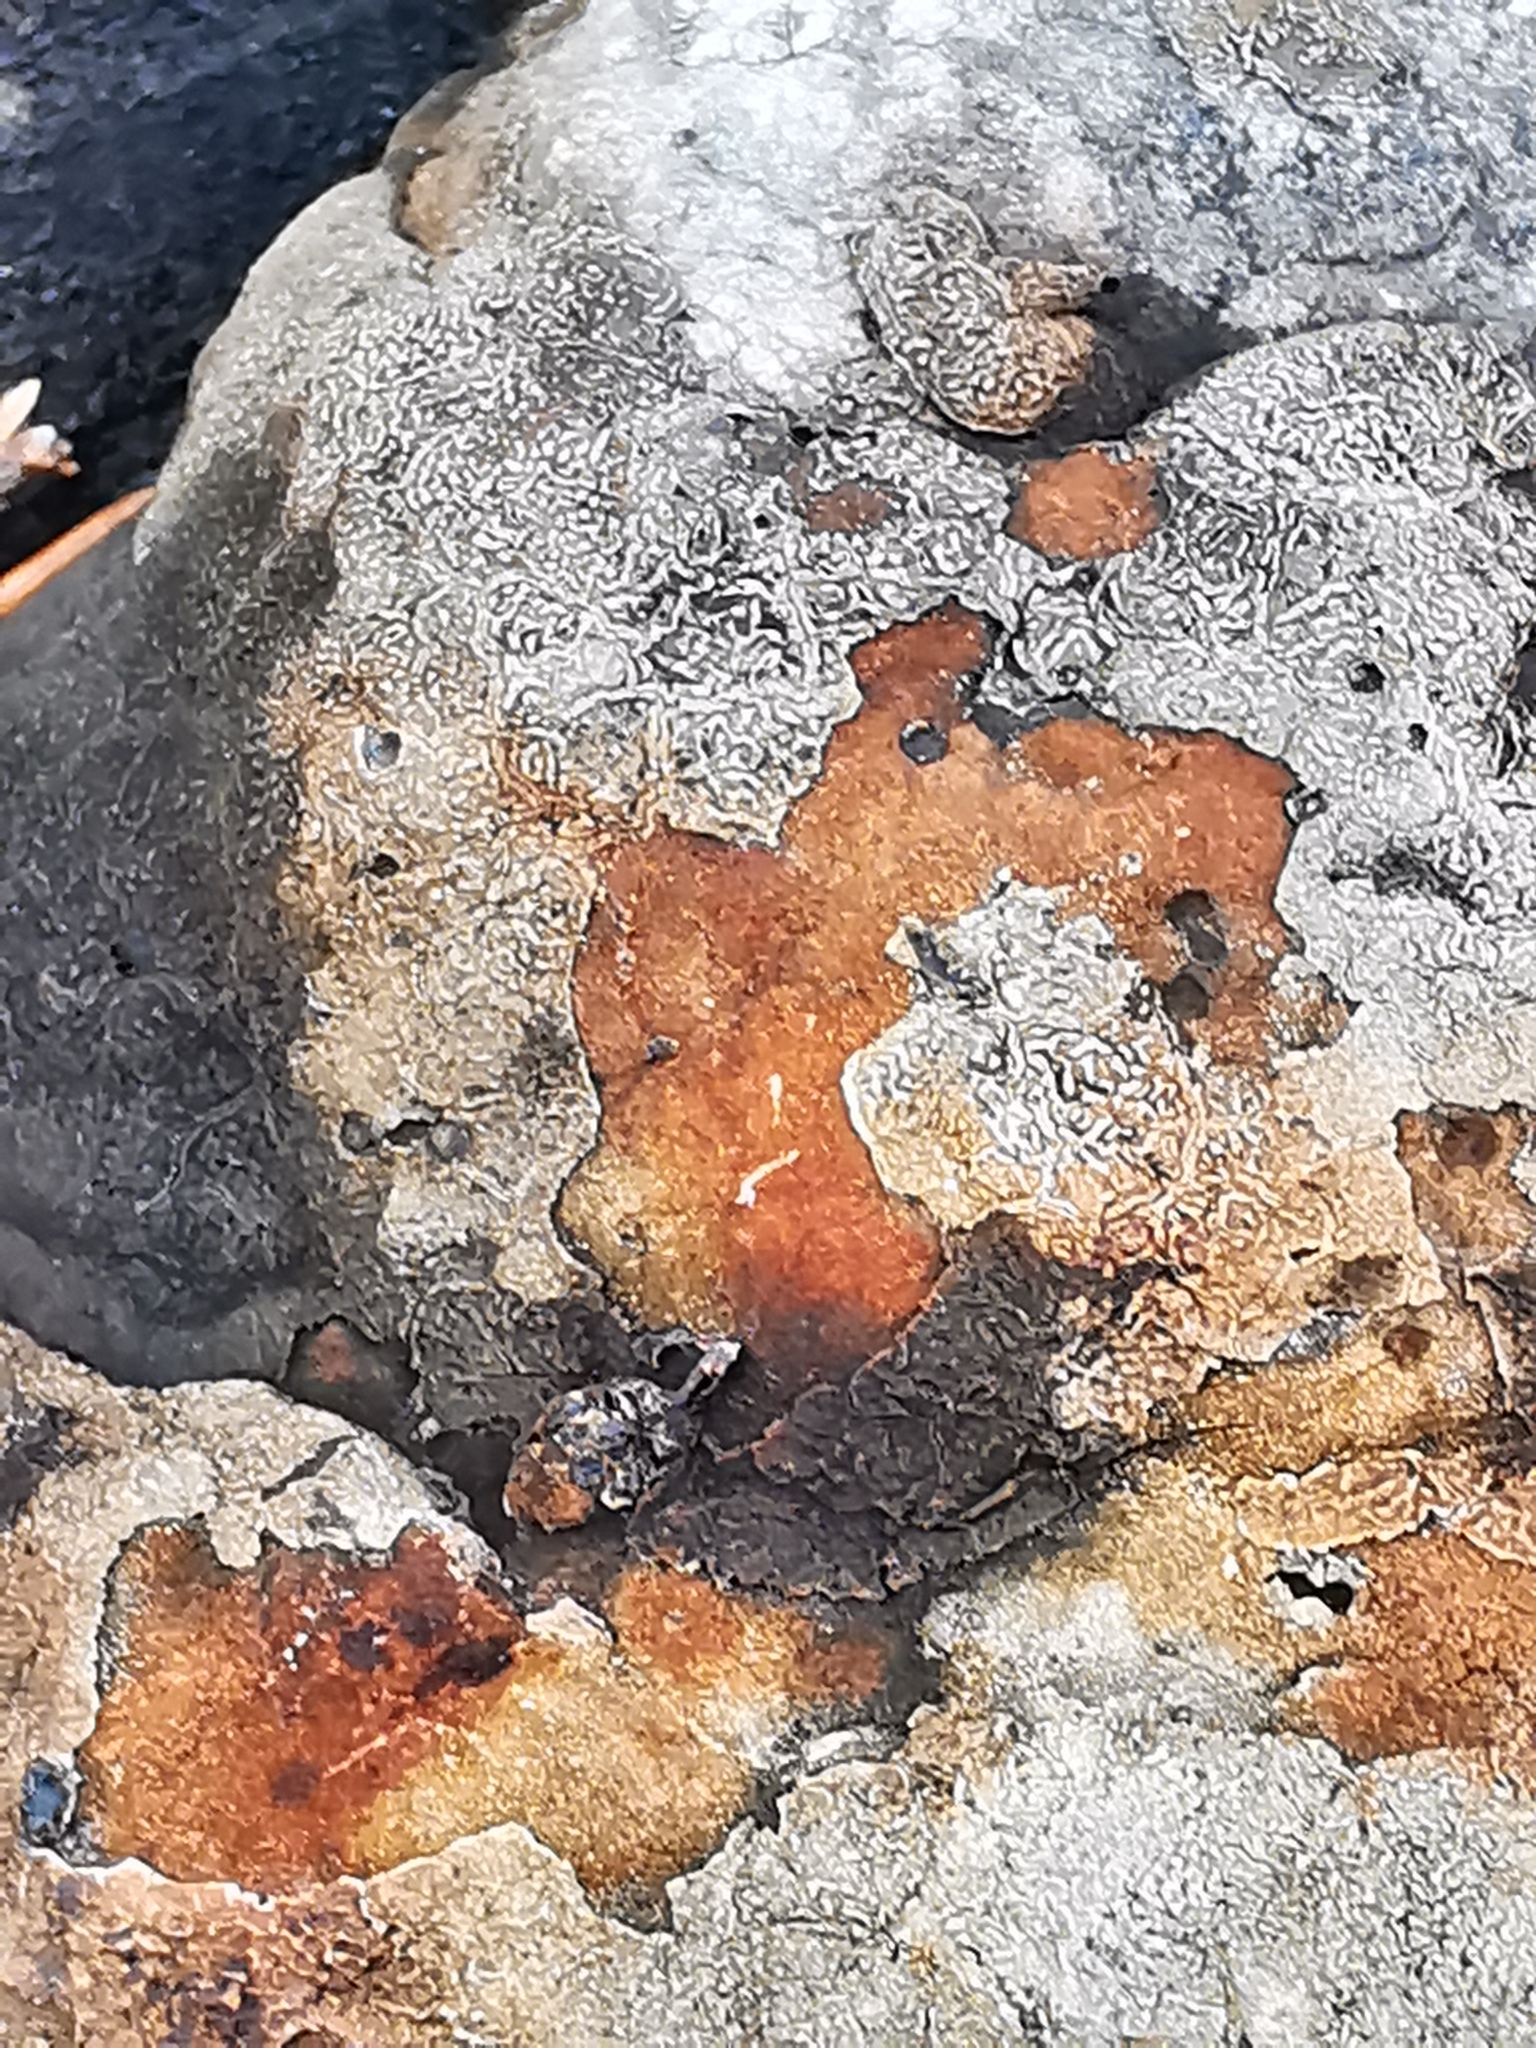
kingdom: Fungi
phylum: Basidiomycota
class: Agaricomycetes
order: Polyporales
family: Fomitopsidaceae
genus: Fomitopsis
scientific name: Fomitopsis pinicola
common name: Red-belted bracket
